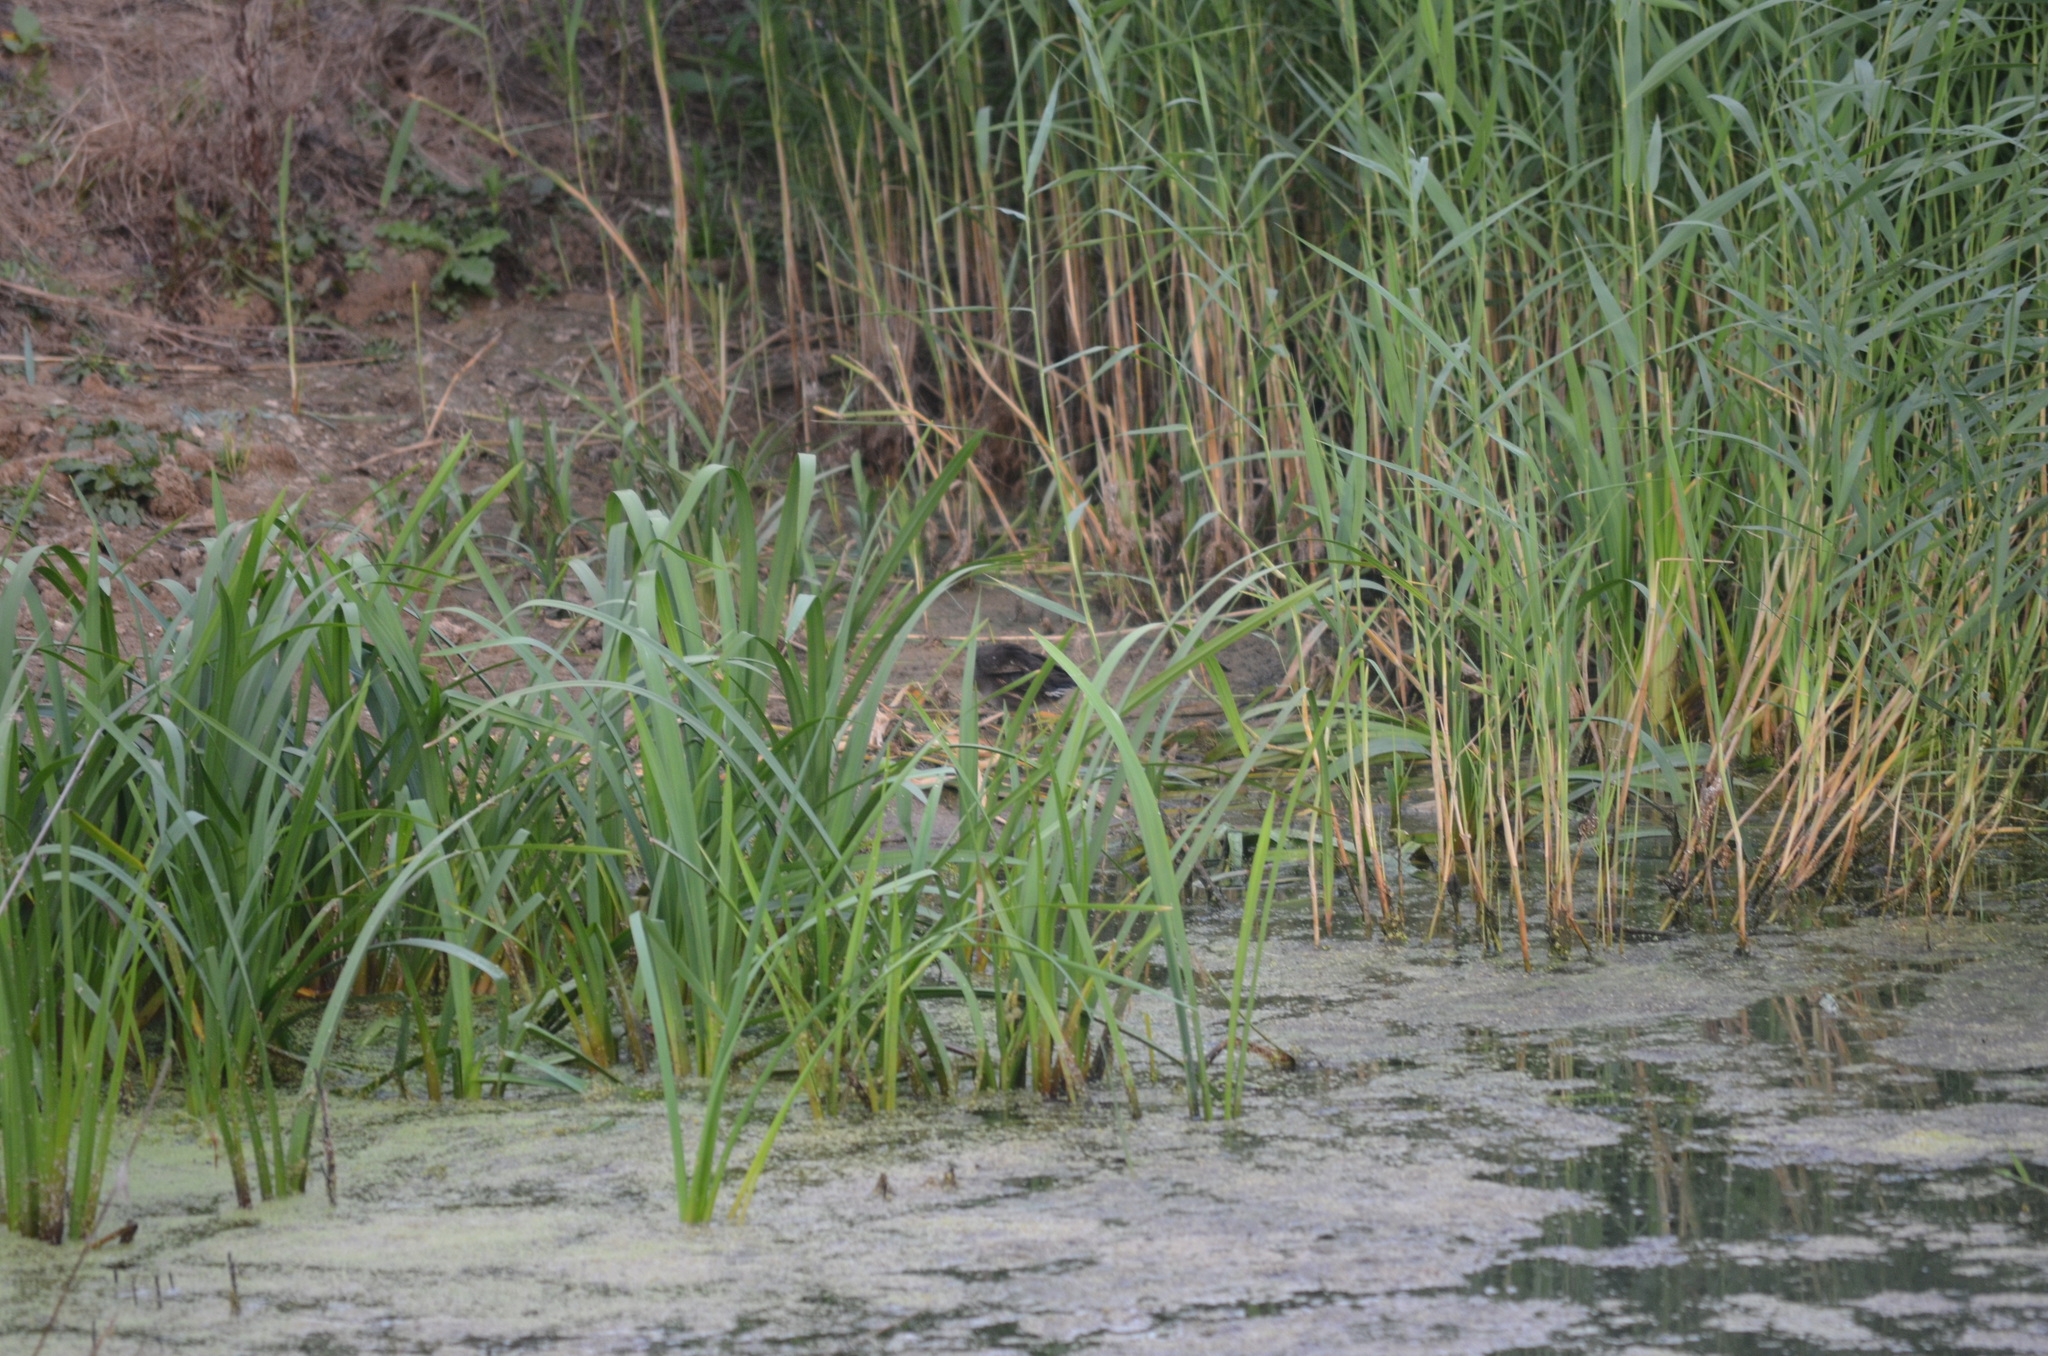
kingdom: Animalia
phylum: Chordata
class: Aves
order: Gruiformes
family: Rallidae
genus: Gallinula
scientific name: Gallinula chloropus
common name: Common moorhen
